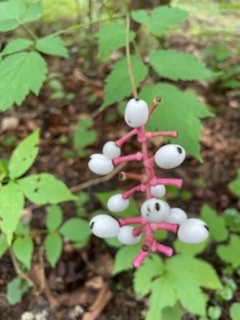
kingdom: Plantae
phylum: Tracheophyta
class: Magnoliopsida
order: Ranunculales
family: Ranunculaceae
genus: Actaea
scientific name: Actaea pachypoda
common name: Doll's-eyes
